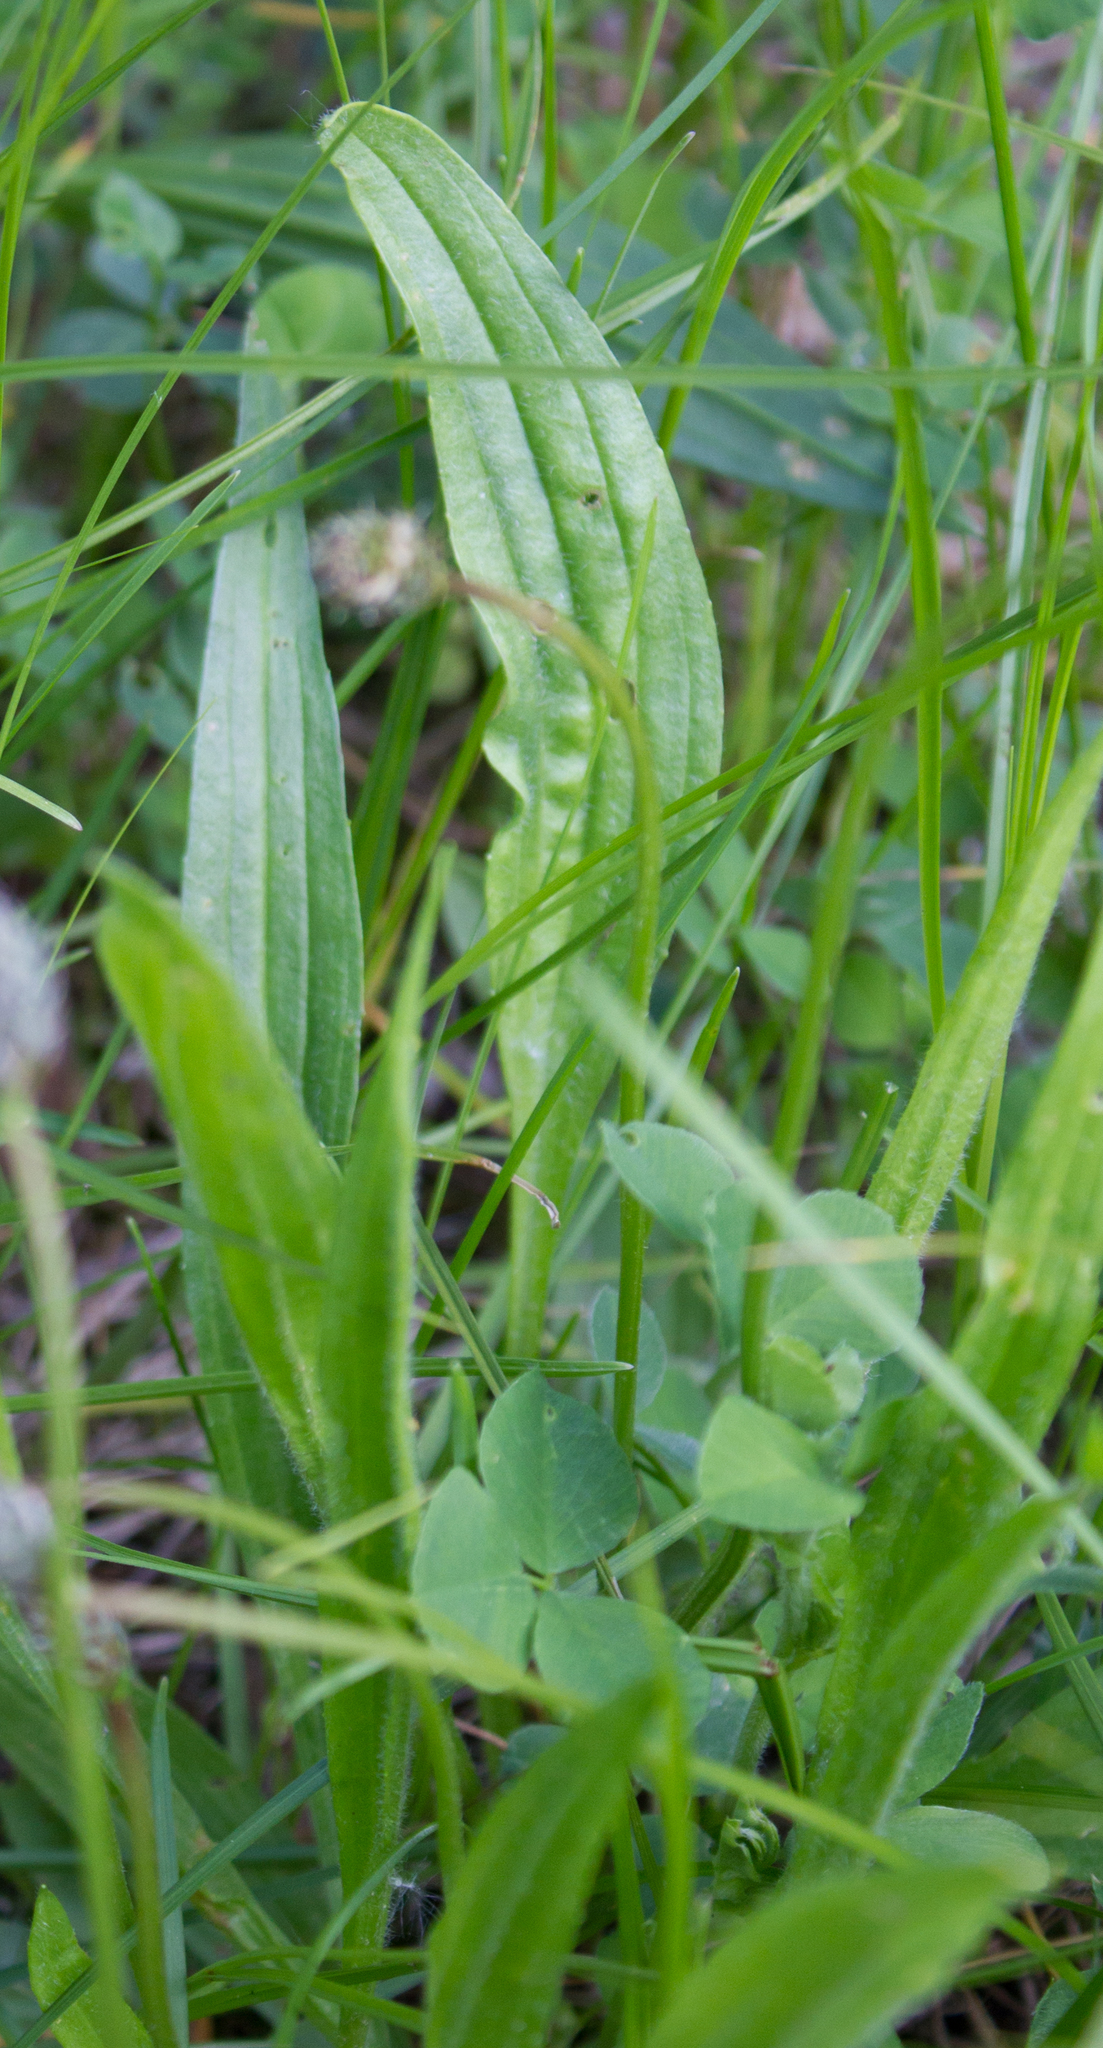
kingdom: Plantae
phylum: Tracheophyta
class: Magnoliopsida
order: Lamiales
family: Plantaginaceae
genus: Plantago
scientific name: Plantago lanceolata
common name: Ribwort plantain
